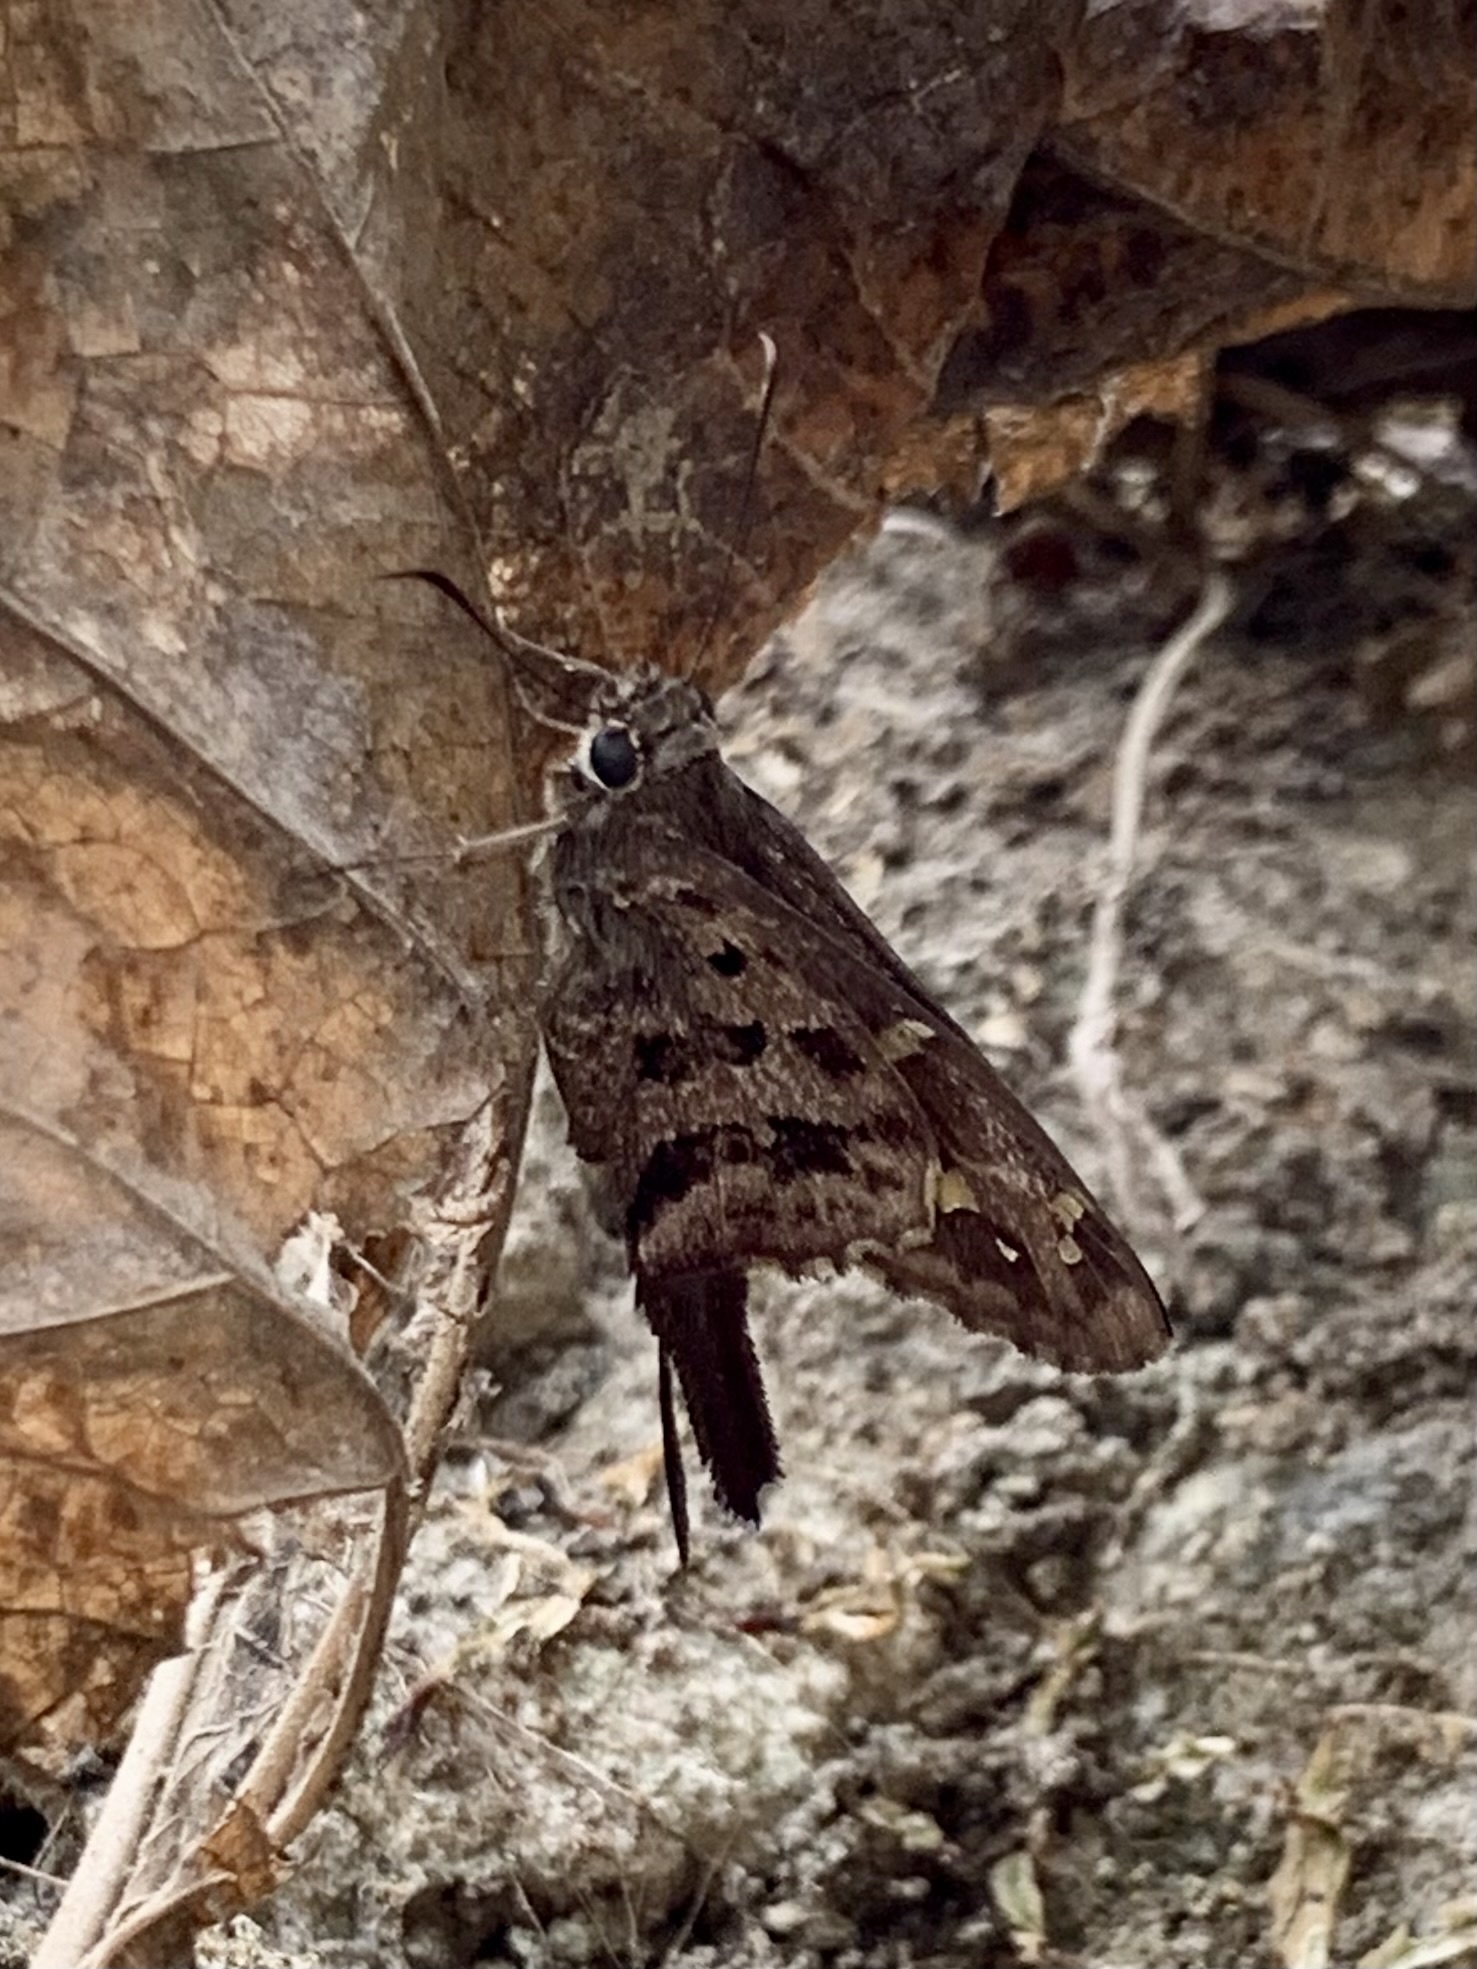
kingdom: Animalia
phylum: Arthropoda
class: Insecta
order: Lepidoptera
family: Hesperiidae
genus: Thorybes
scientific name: Thorybes
